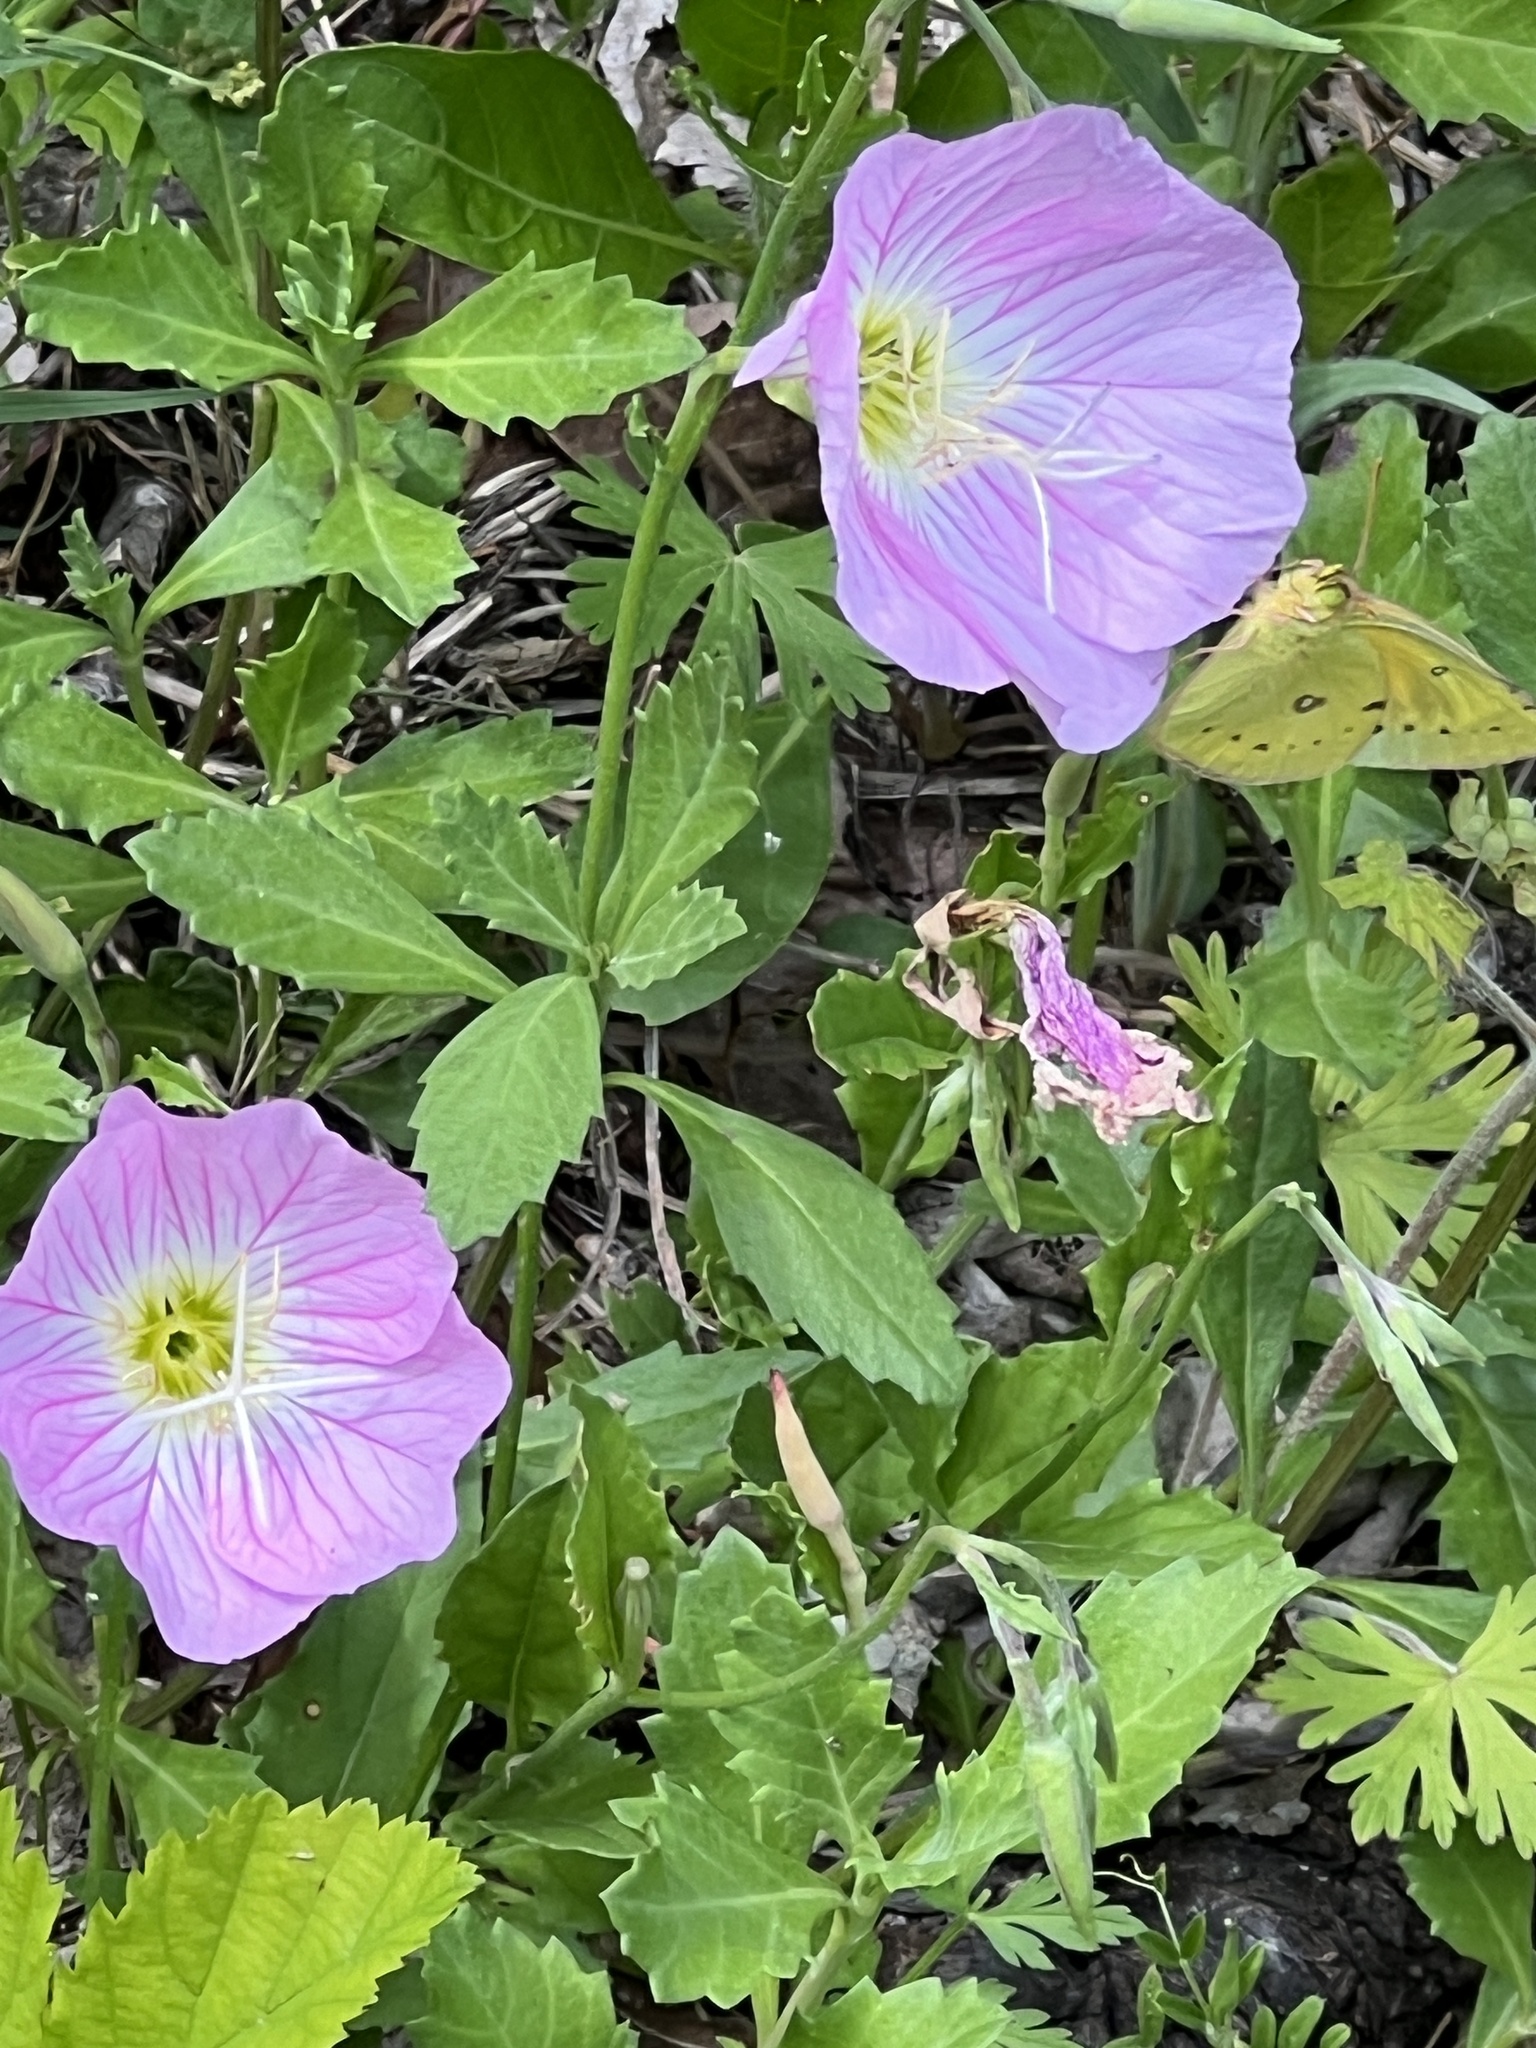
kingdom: Plantae
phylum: Tracheophyta
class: Magnoliopsida
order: Myrtales
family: Onagraceae
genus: Oenothera
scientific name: Oenothera speciosa
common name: White evening-primrose
